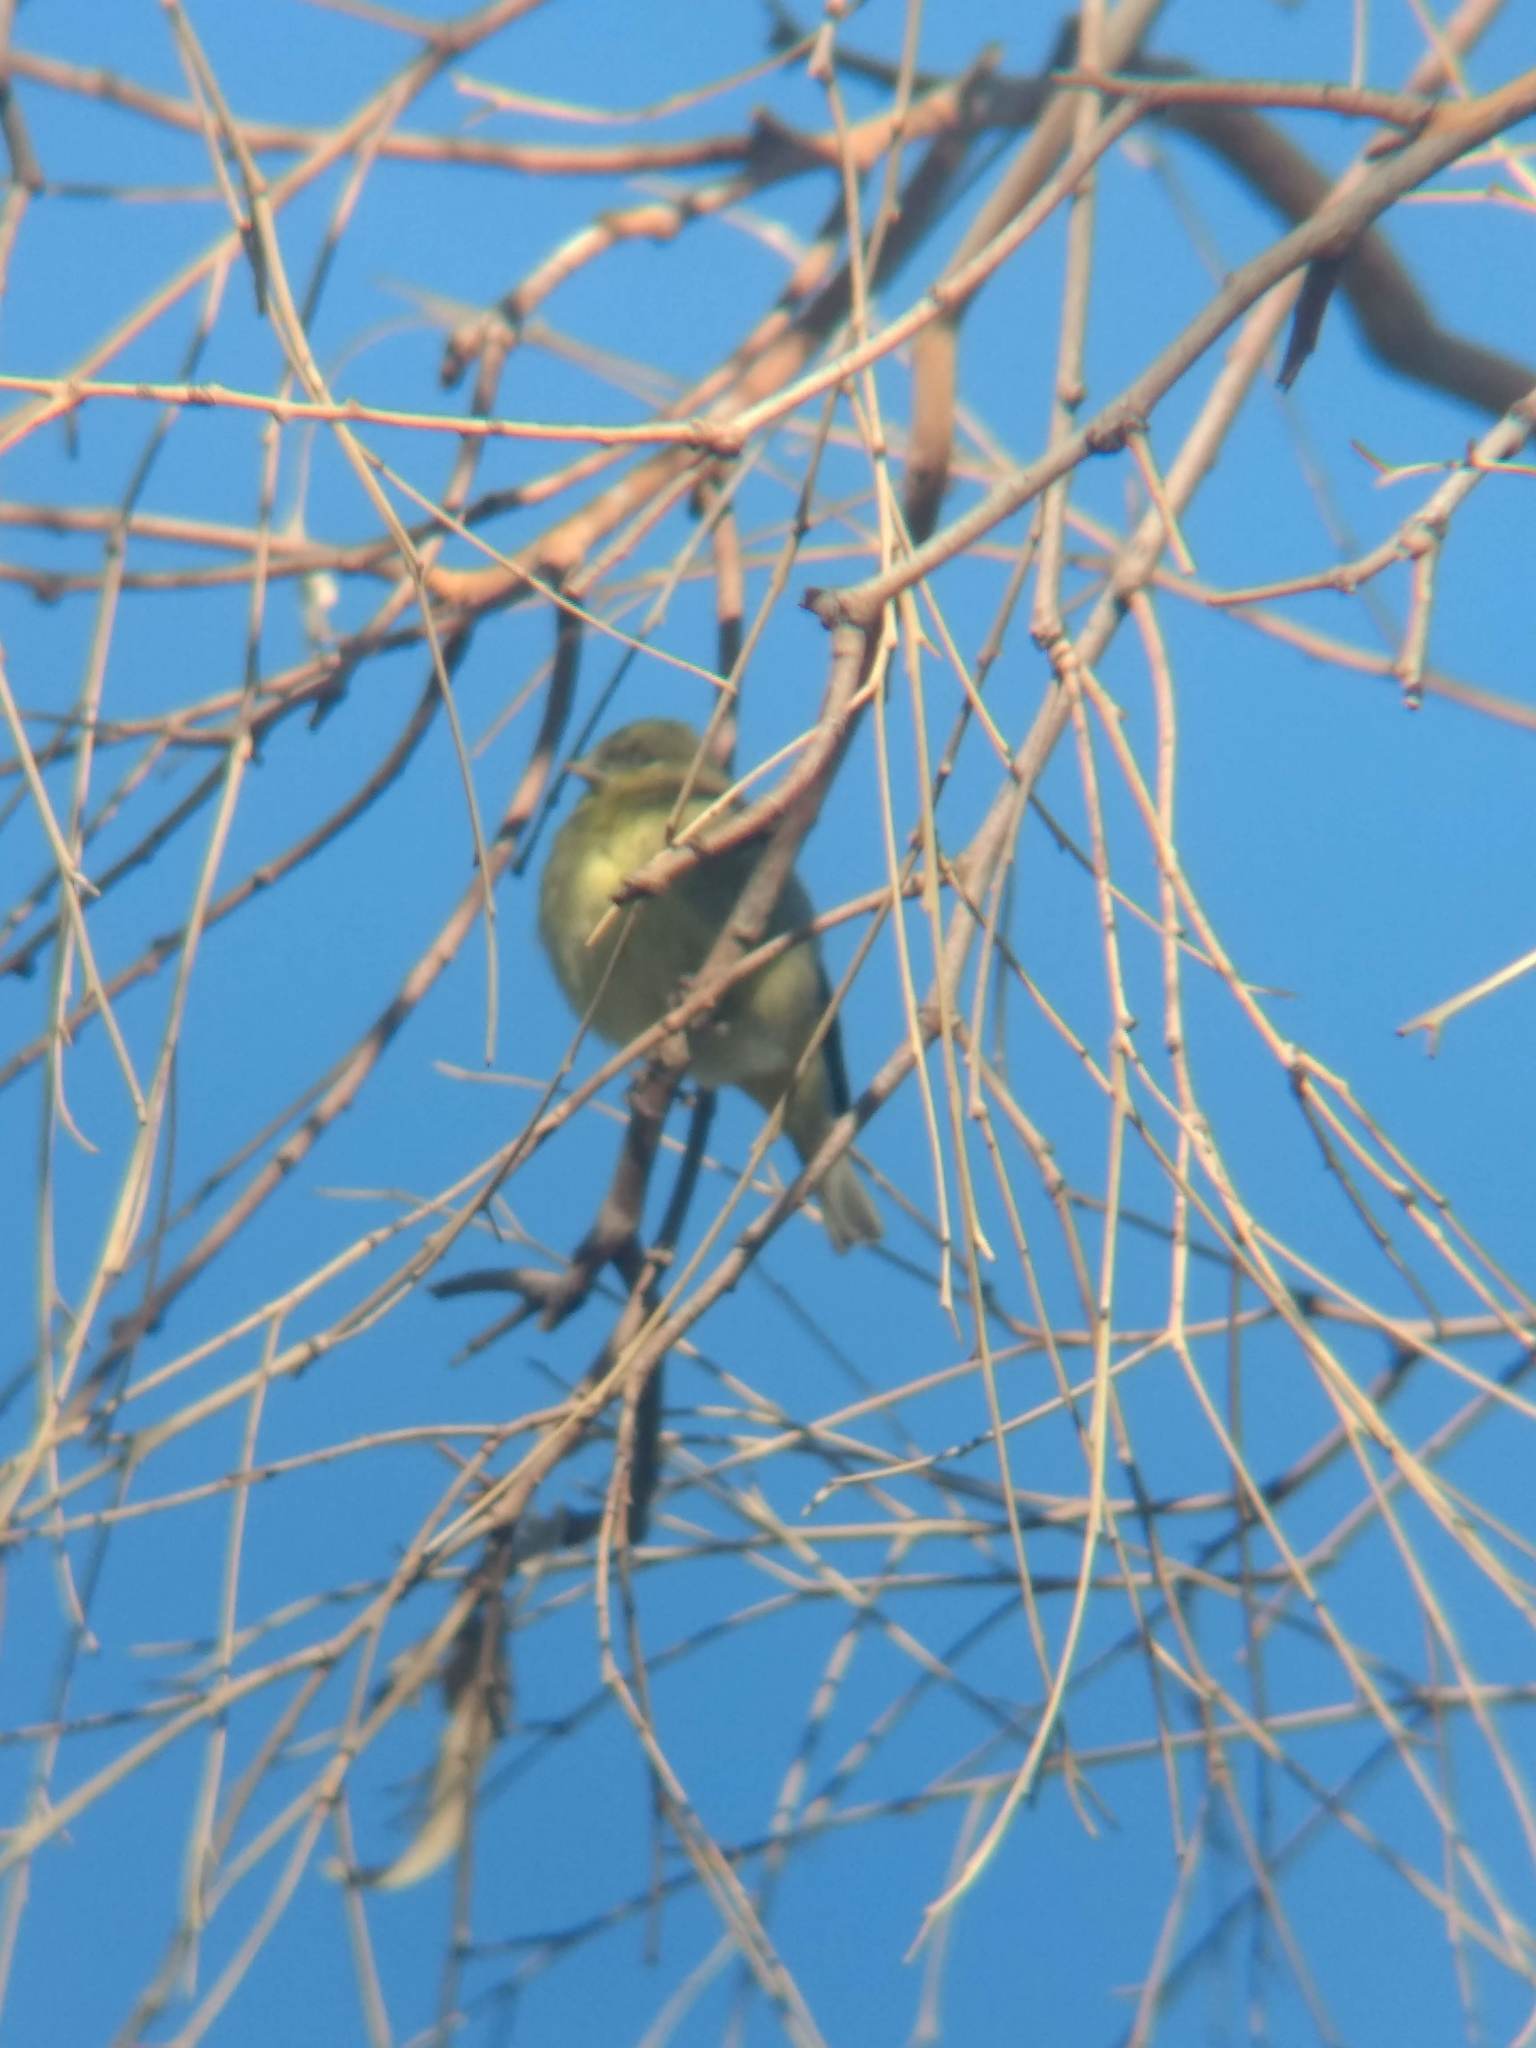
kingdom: Animalia
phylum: Chordata
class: Aves
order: Passeriformes
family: Fringillidae
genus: Spinus
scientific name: Spinus psaltria
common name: Lesser goldfinch
